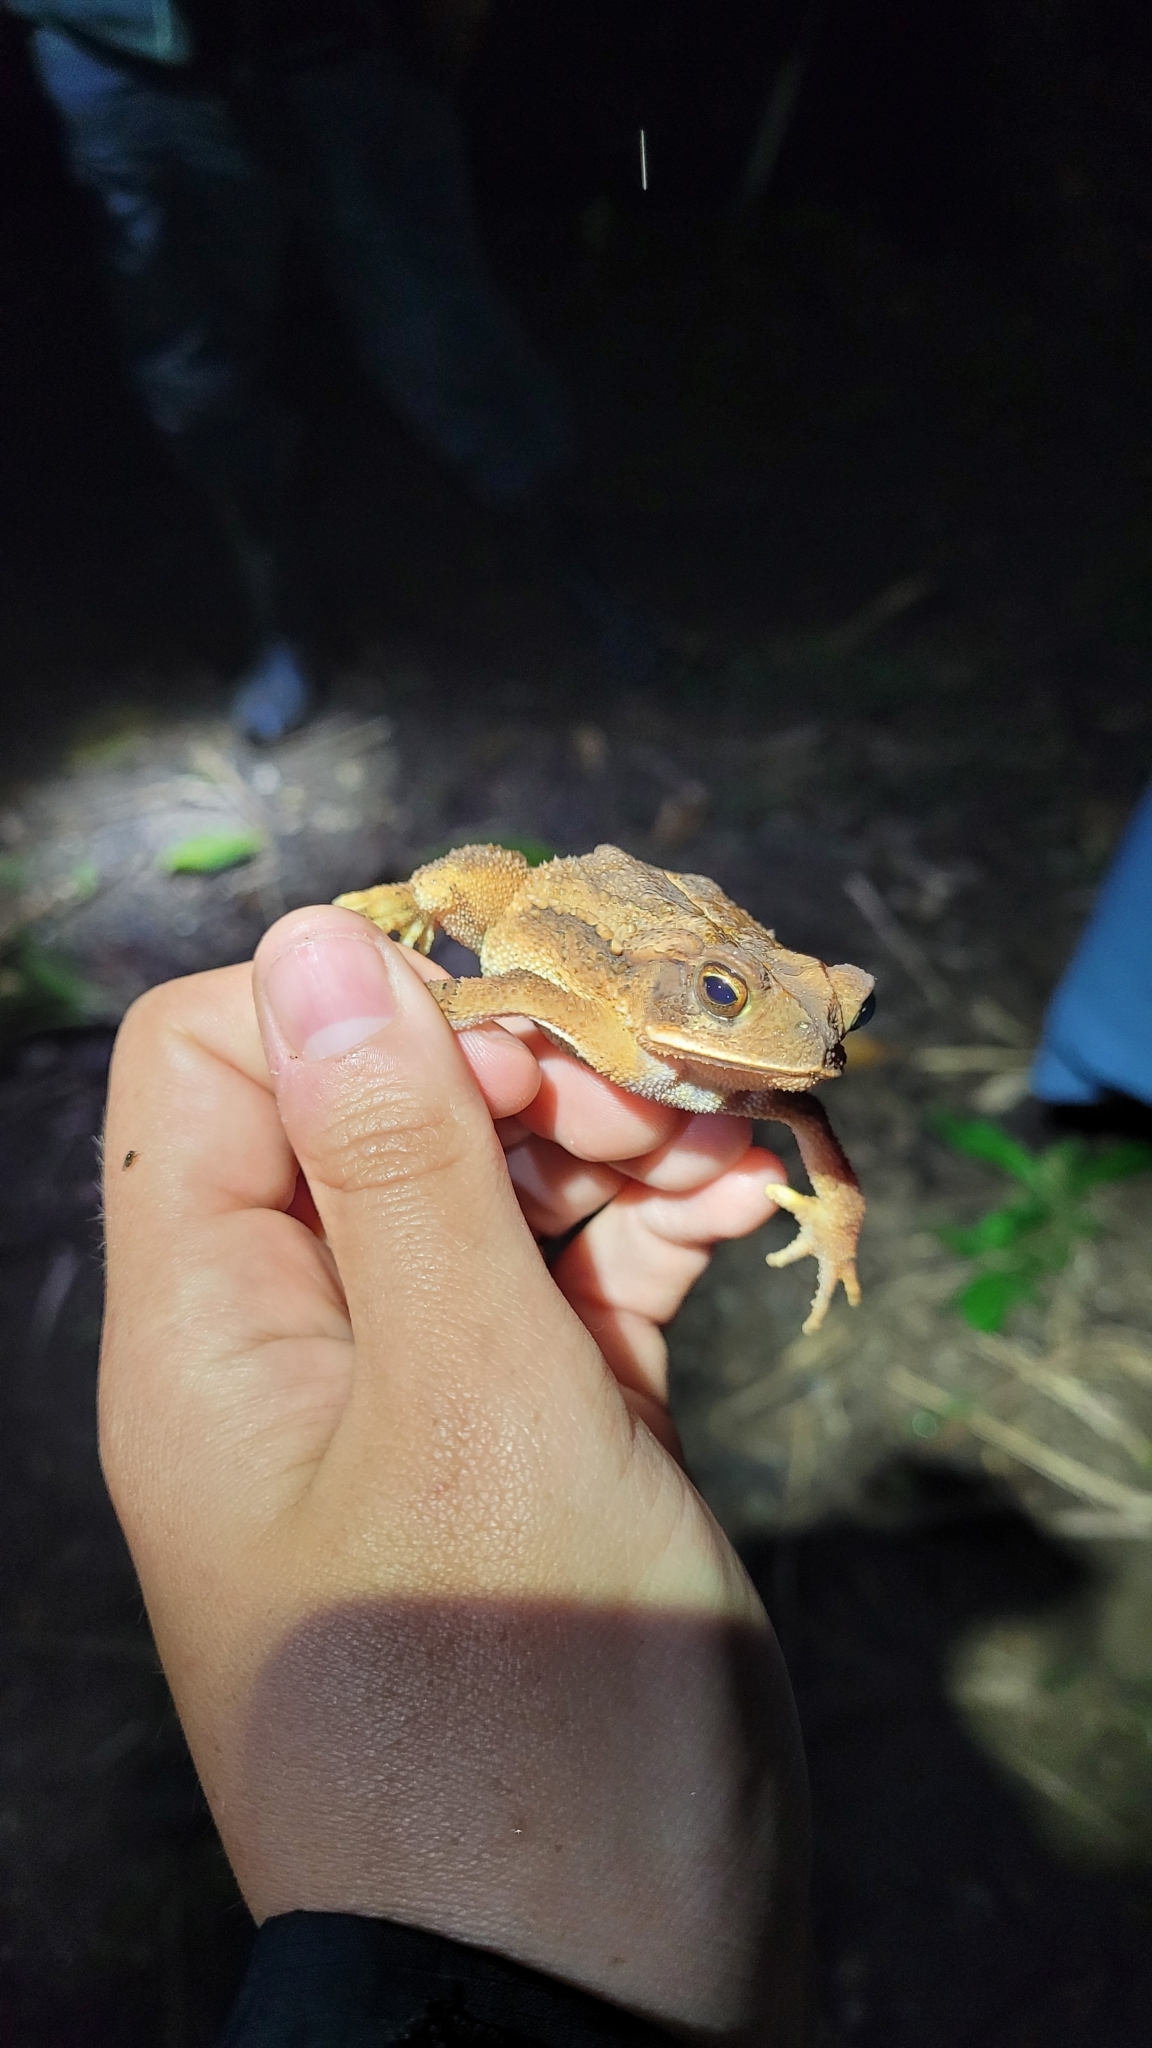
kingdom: Animalia
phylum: Chordata
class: Amphibia
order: Anura
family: Bufonidae
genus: Incilius
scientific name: Incilius valliceps
